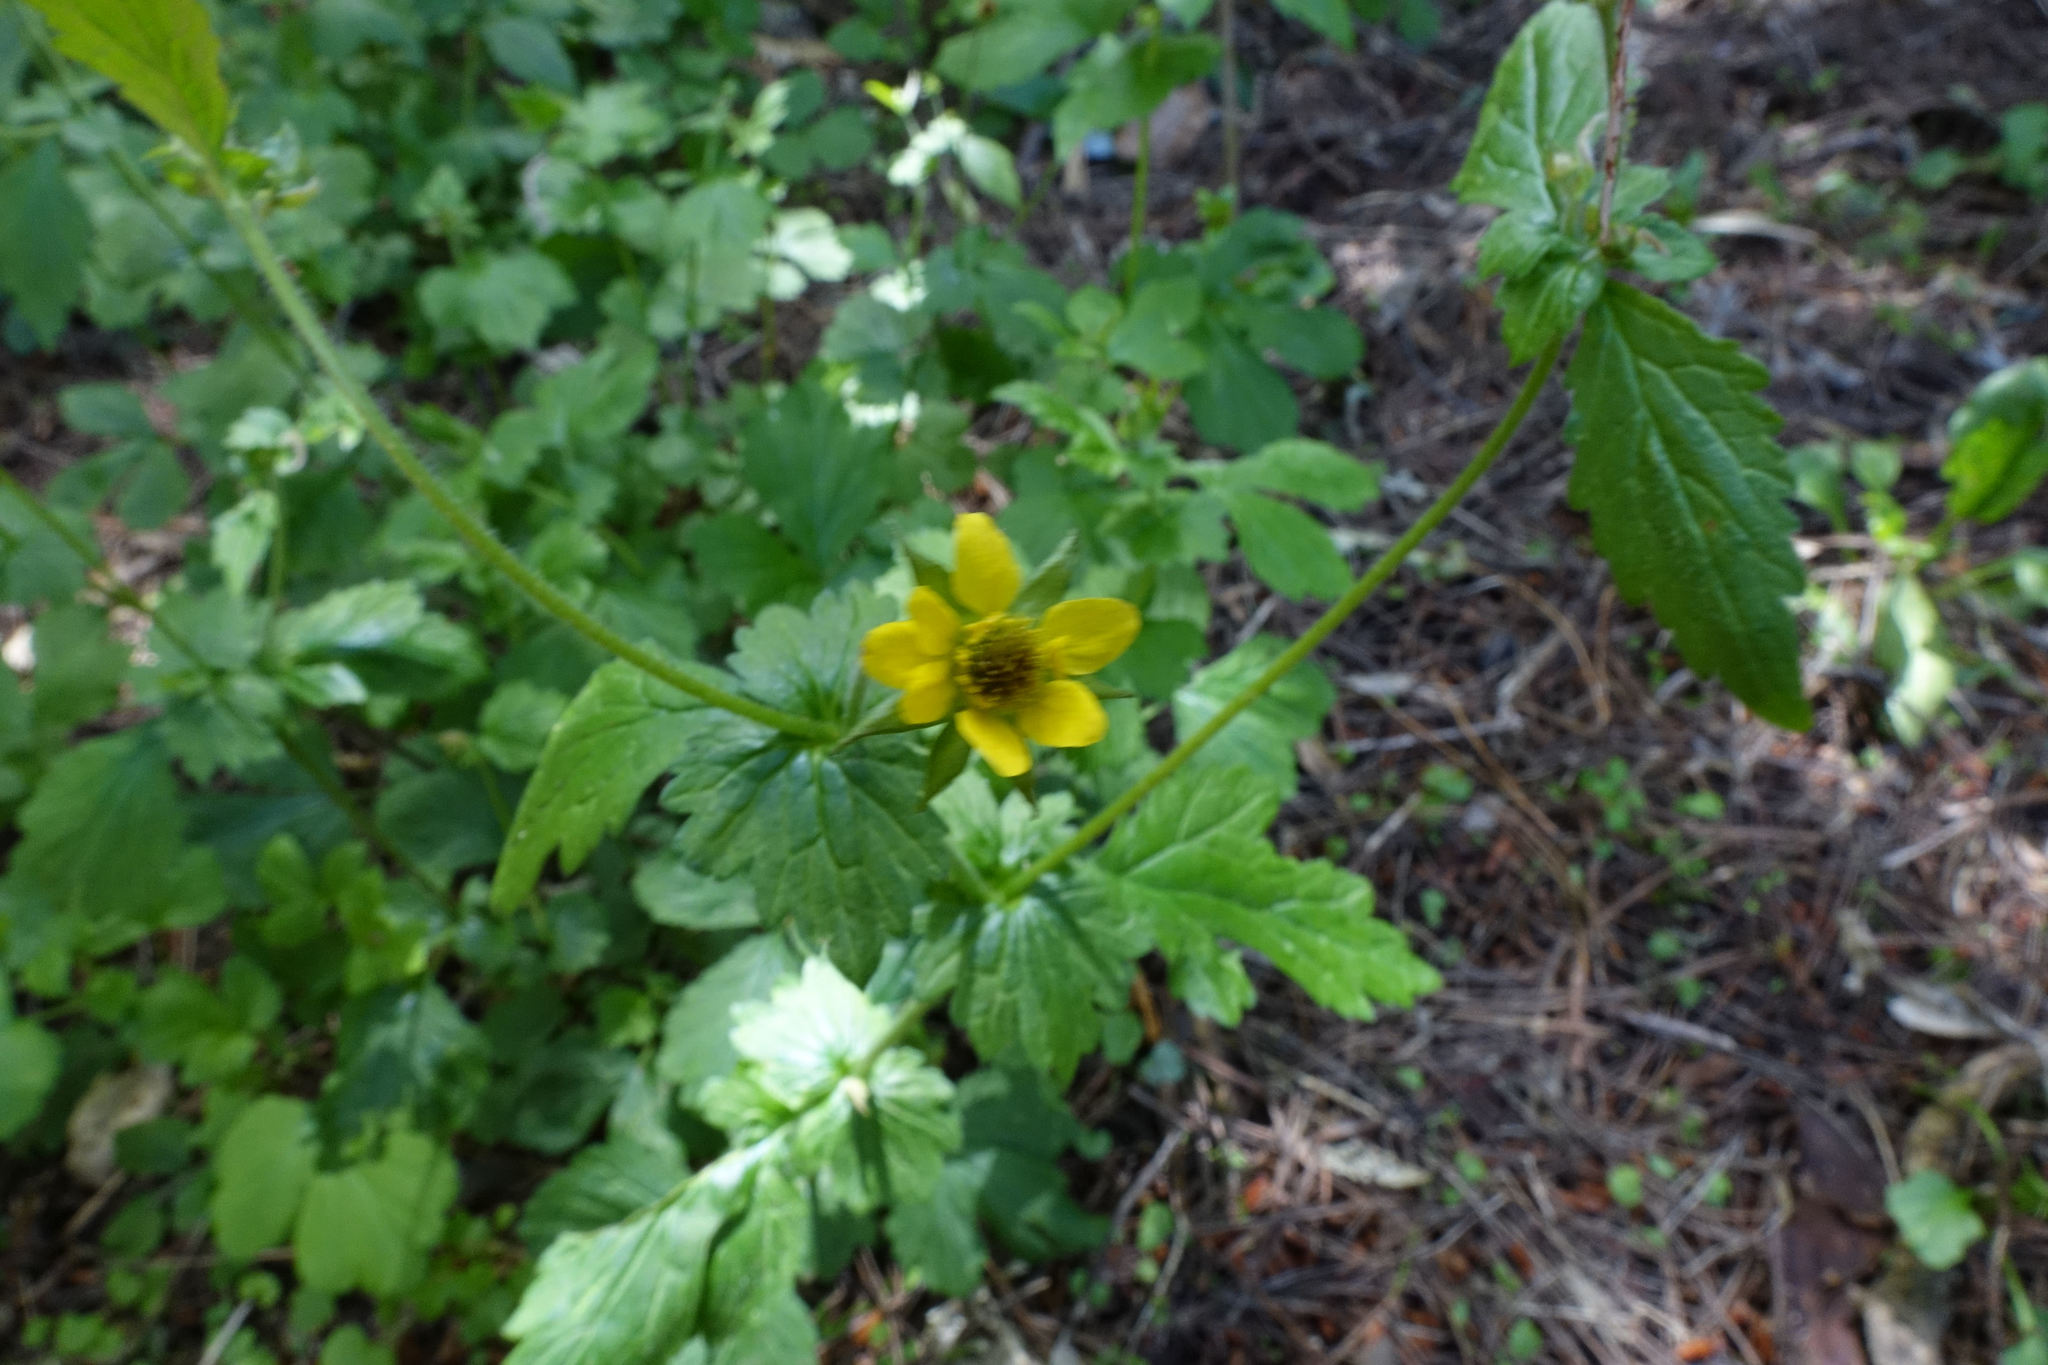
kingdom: Plantae
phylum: Tracheophyta
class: Magnoliopsida
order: Rosales
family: Rosaceae
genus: Geum
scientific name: Geum urbanum
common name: Wood avens
